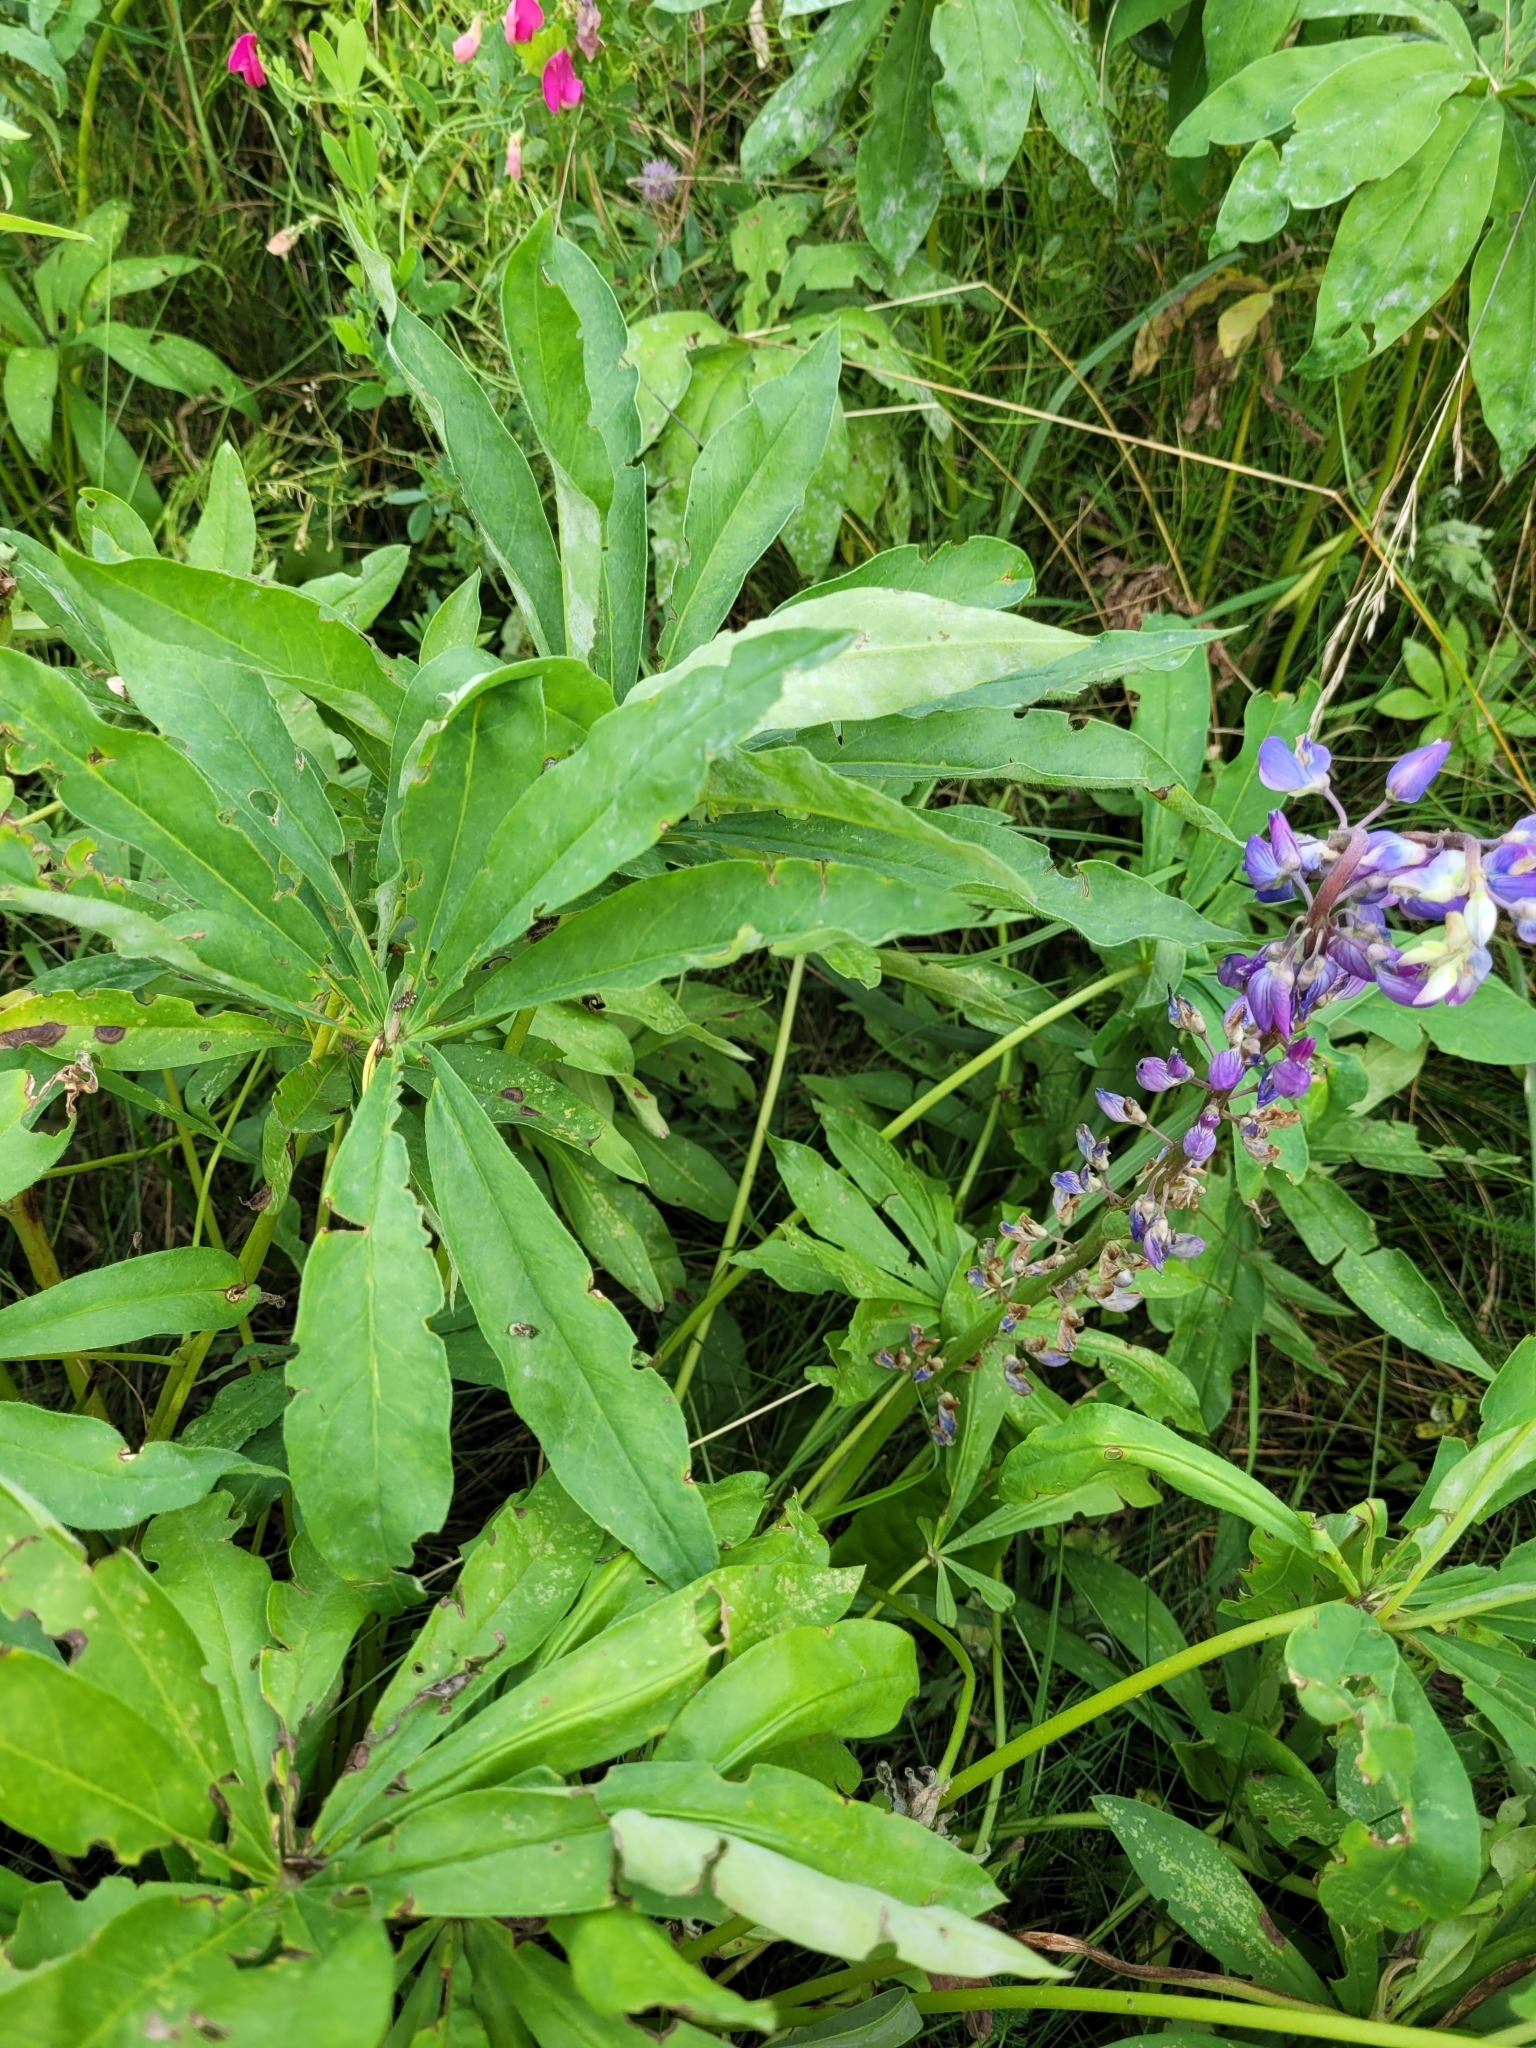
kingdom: Plantae
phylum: Tracheophyta
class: Magnoliopsida
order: Fabales
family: Fabaceae
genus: Lupinus
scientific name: Lupinus polyphyllus
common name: Garden lupin
